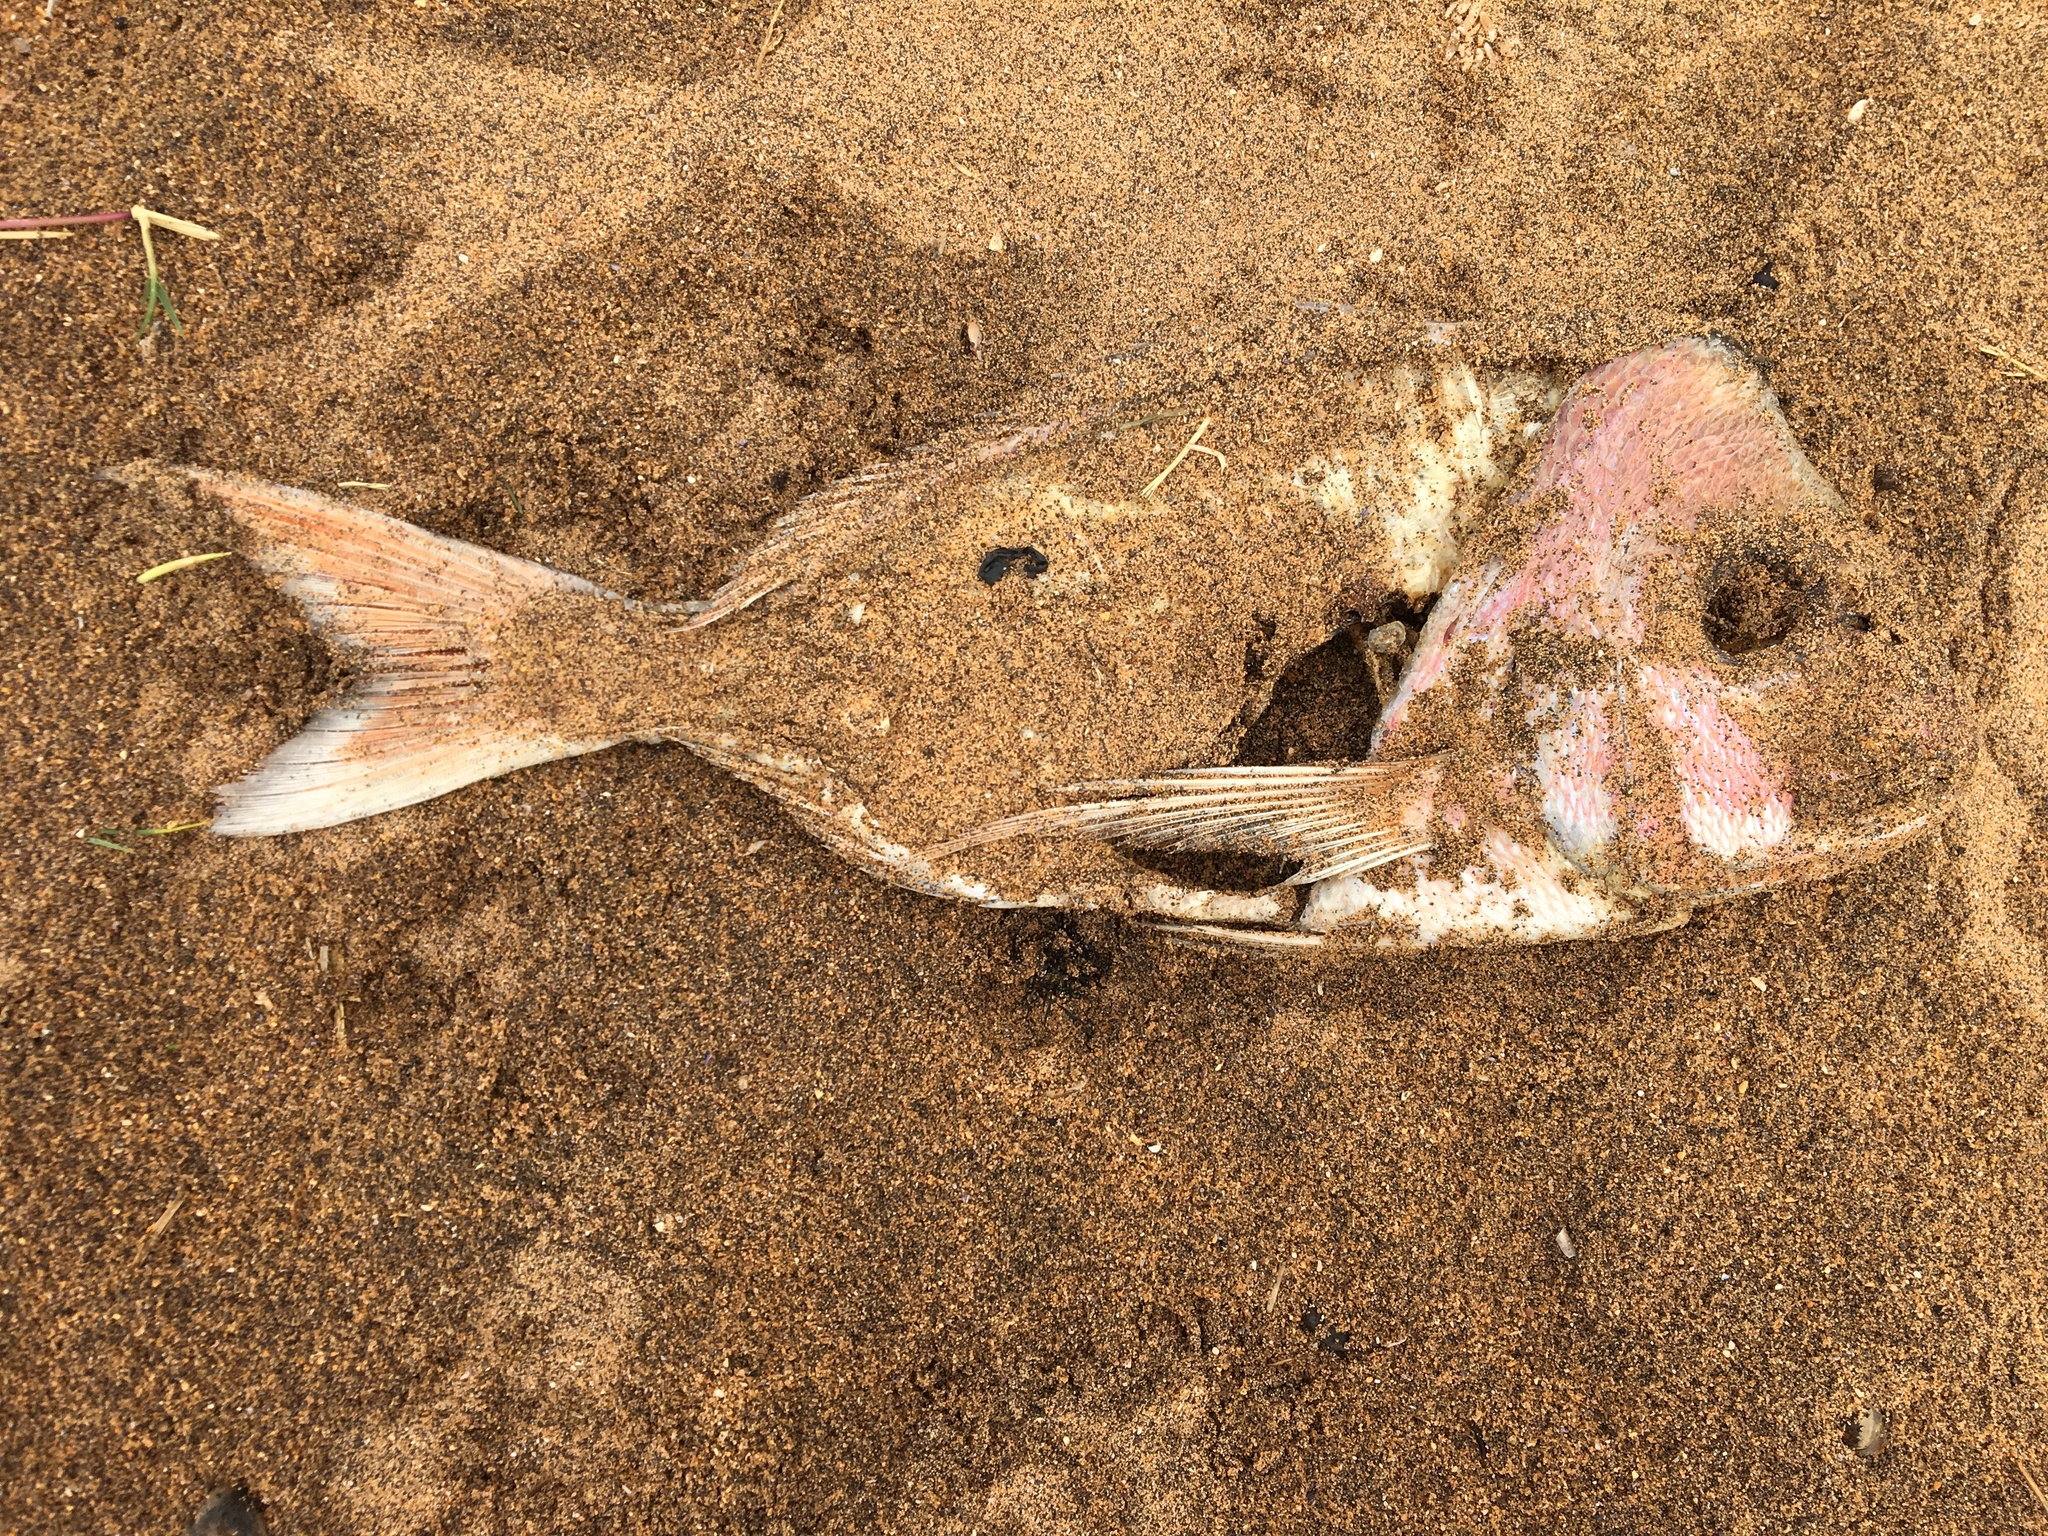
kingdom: Animalia
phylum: Chordata
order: Perciformes
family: Sparidae
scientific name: Sparidae
